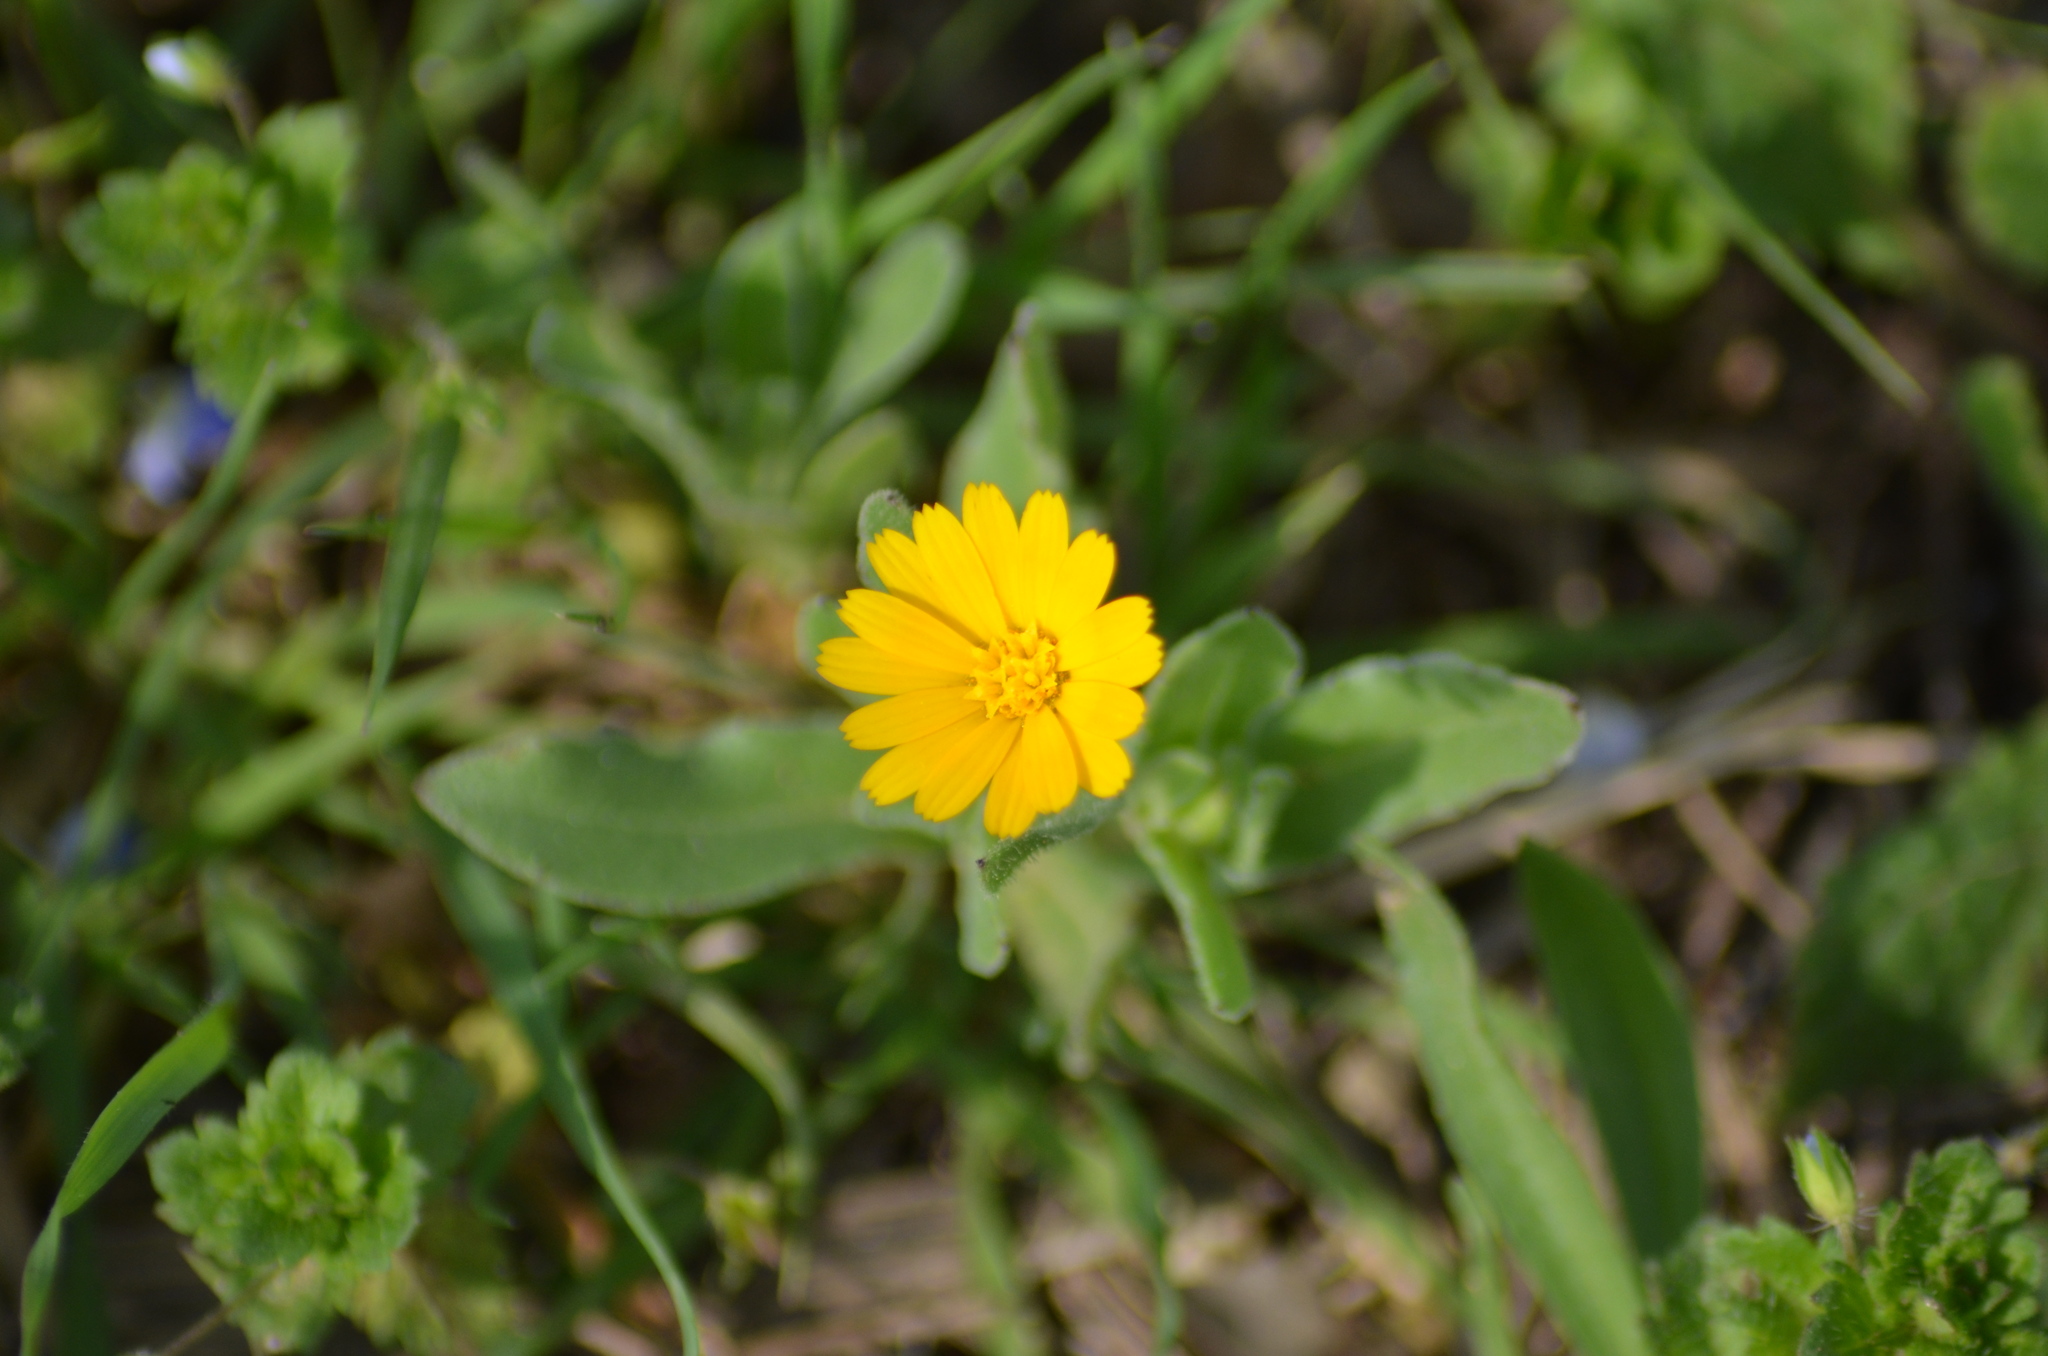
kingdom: Plantae
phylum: Tracheophyta
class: Magnoliopsida
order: Asterales
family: Asteraceae
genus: Calendula
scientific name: Calendula arvensis
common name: Field marigold
